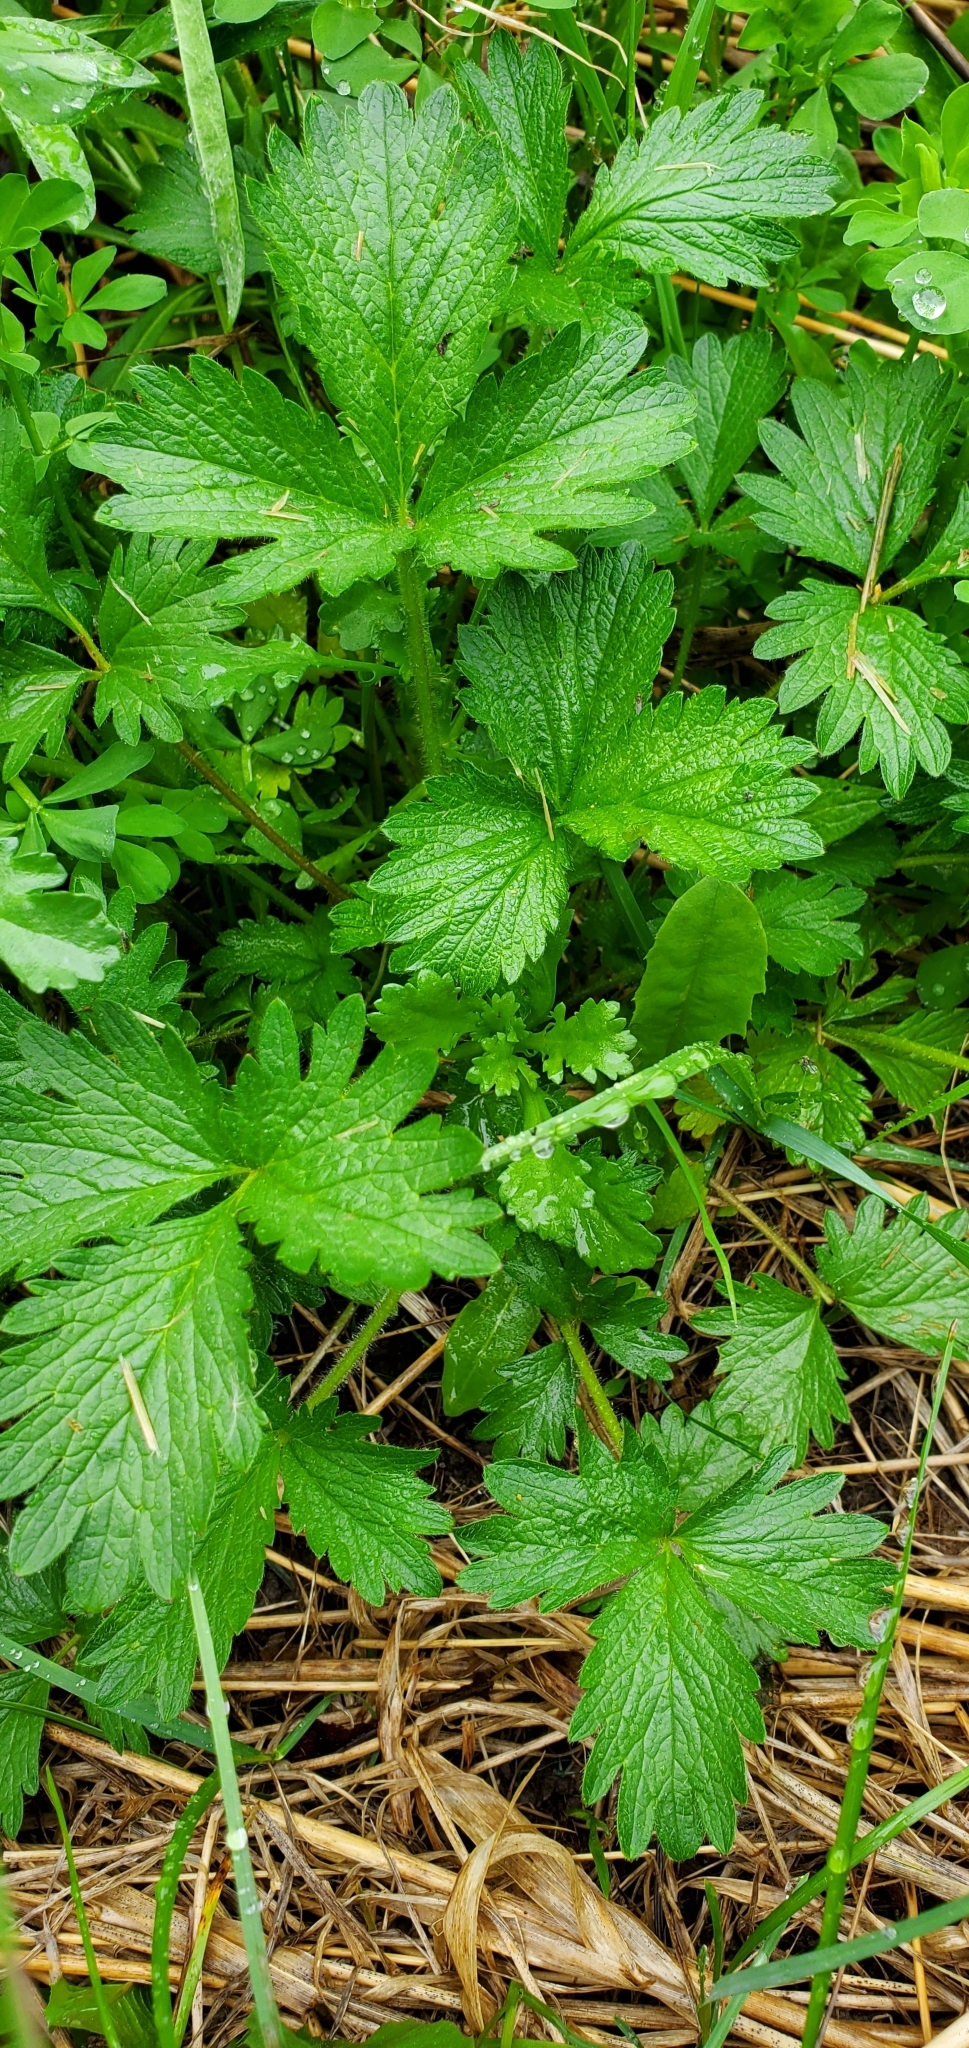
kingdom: Plantae
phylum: Tracheophyta
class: Magnoliopsida
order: Rosales
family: Rosaceae
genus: Potentilla
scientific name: Potentilla norvegica
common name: Ternate-leaved cinquefoil
